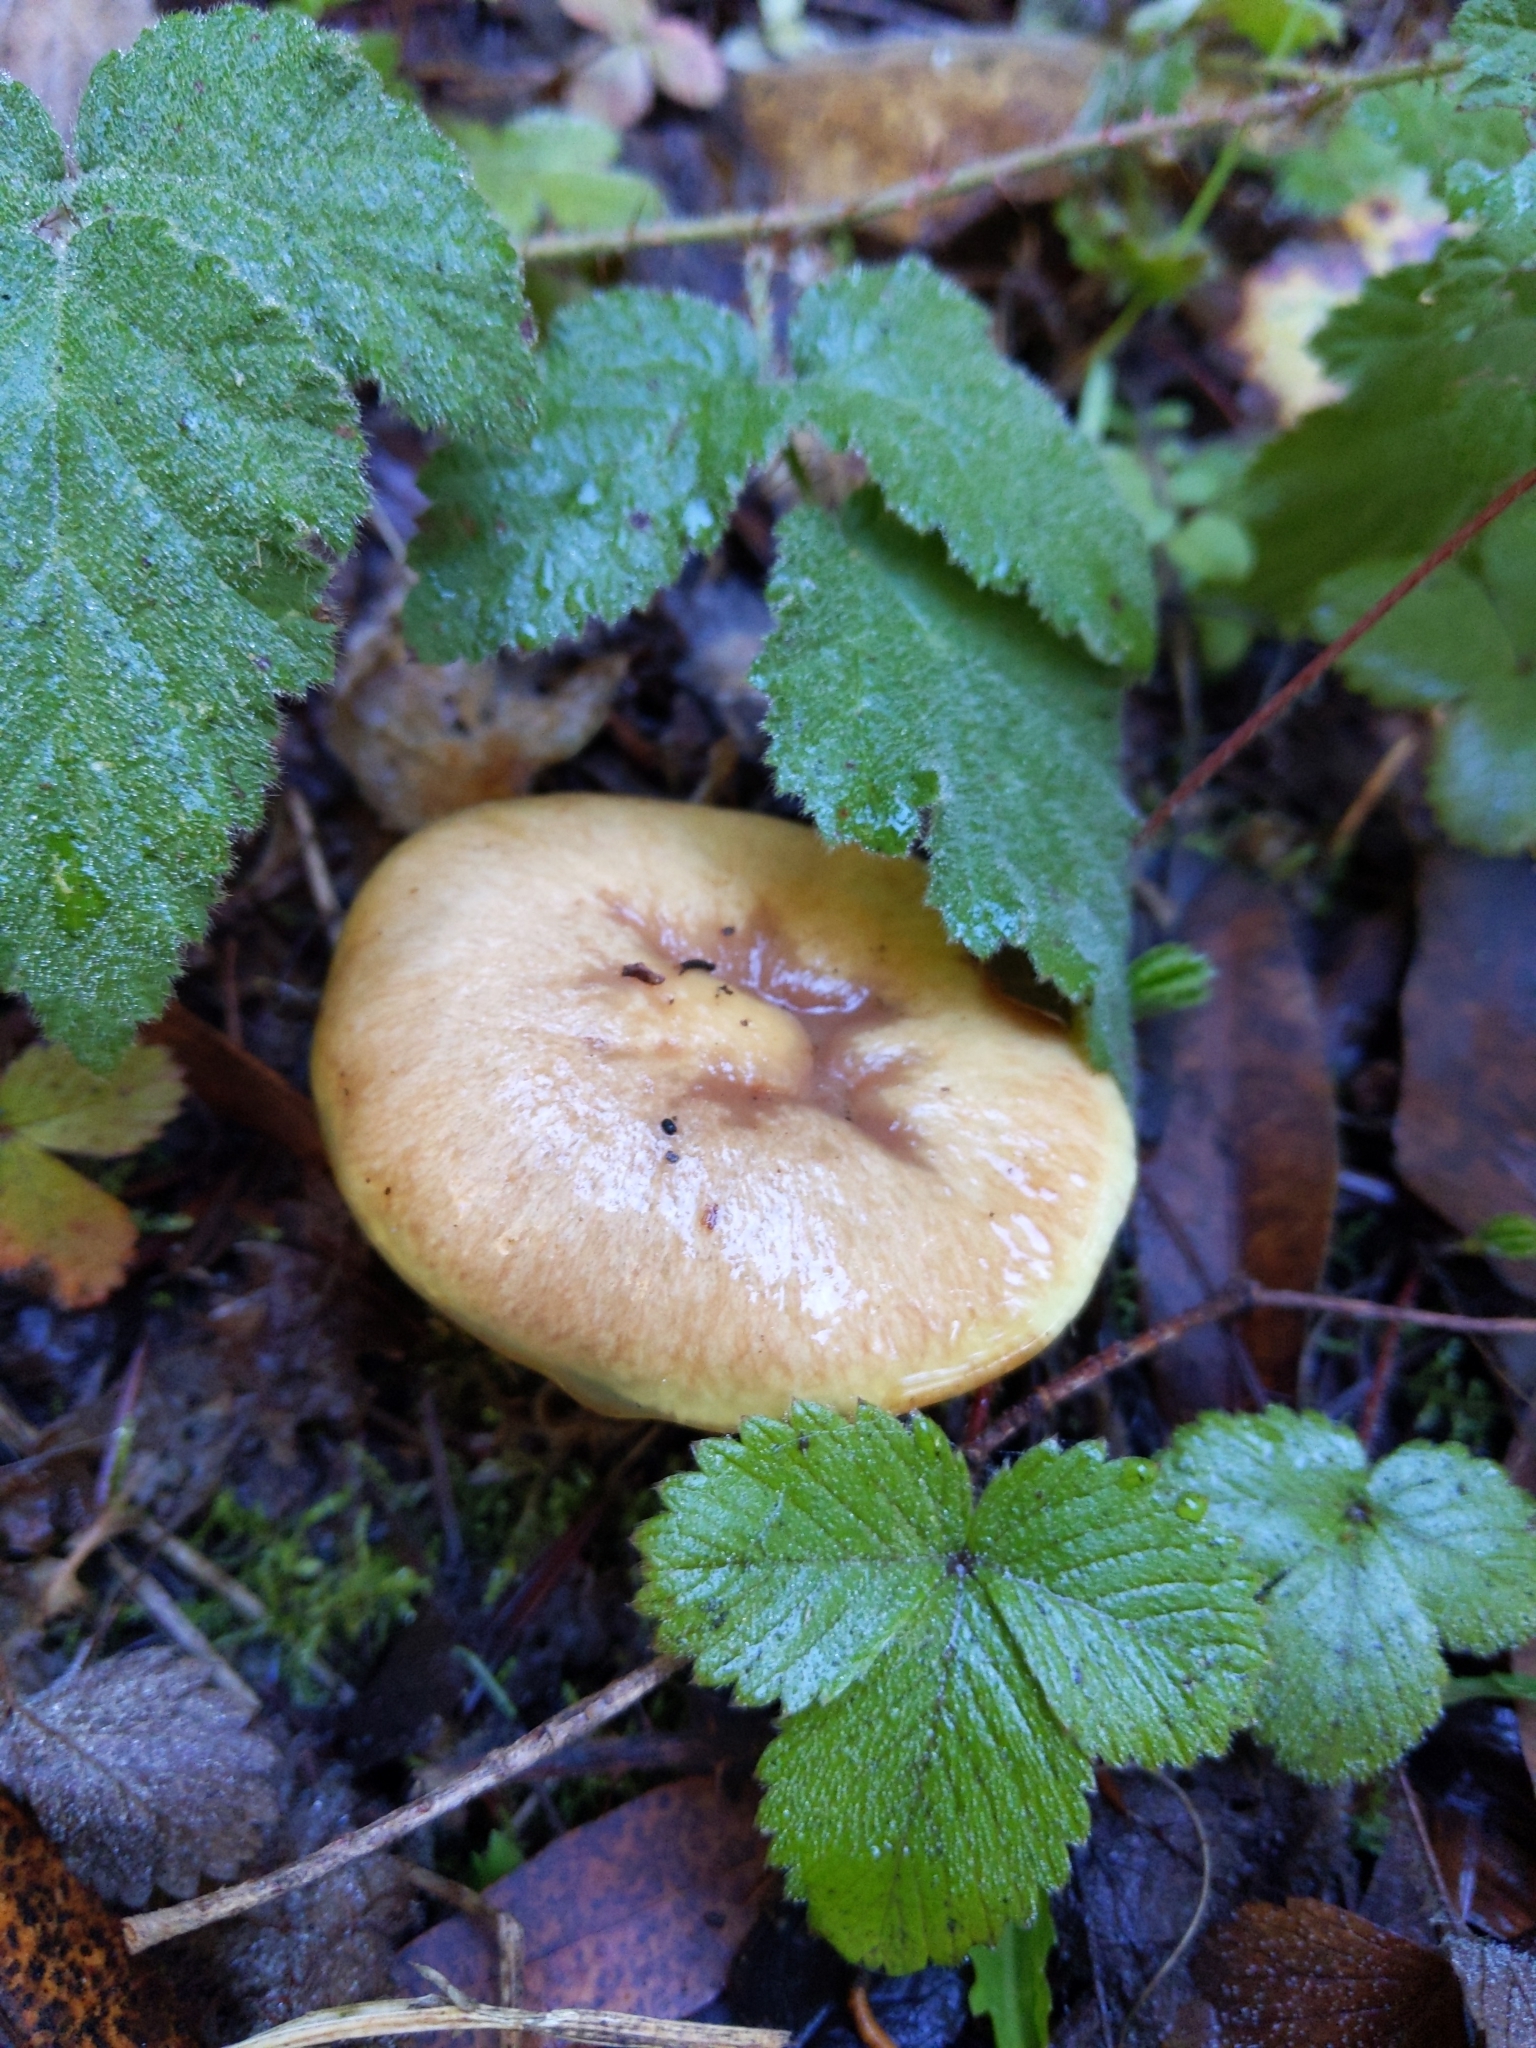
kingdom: Fungi
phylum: Basidiomycota
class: Agaricomycetes
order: Boletales
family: Suillaceae
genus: Suillus
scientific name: Suillus caerulescens
